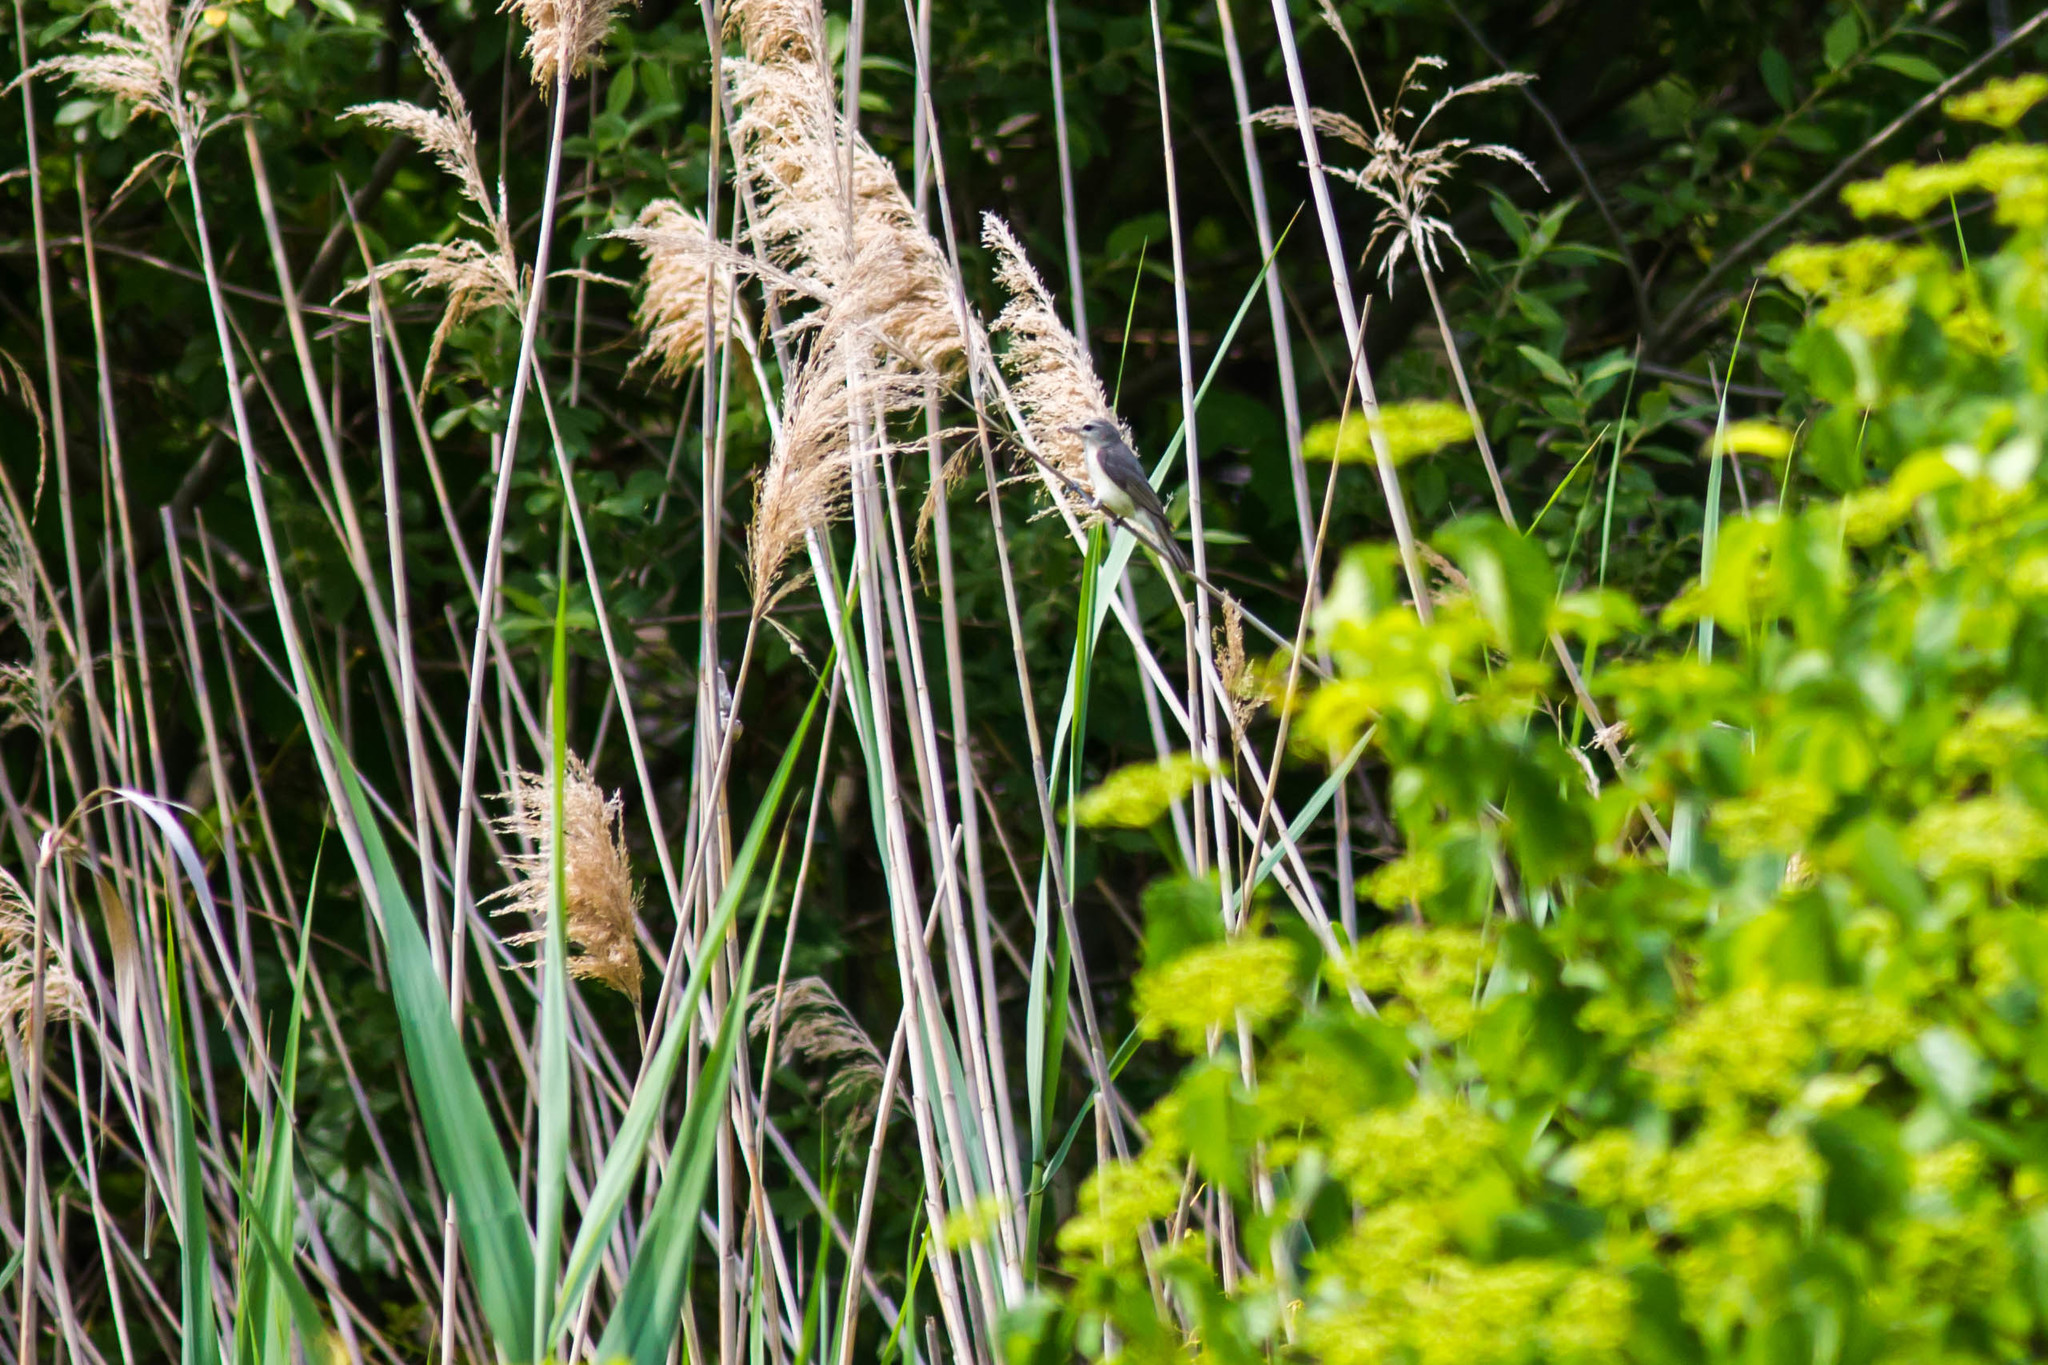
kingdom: Animalia
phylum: Chordata
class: Aves
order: Passeriformes
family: Vireonidae
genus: Vireo
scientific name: Vireo gilvus
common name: Warbling vireo
